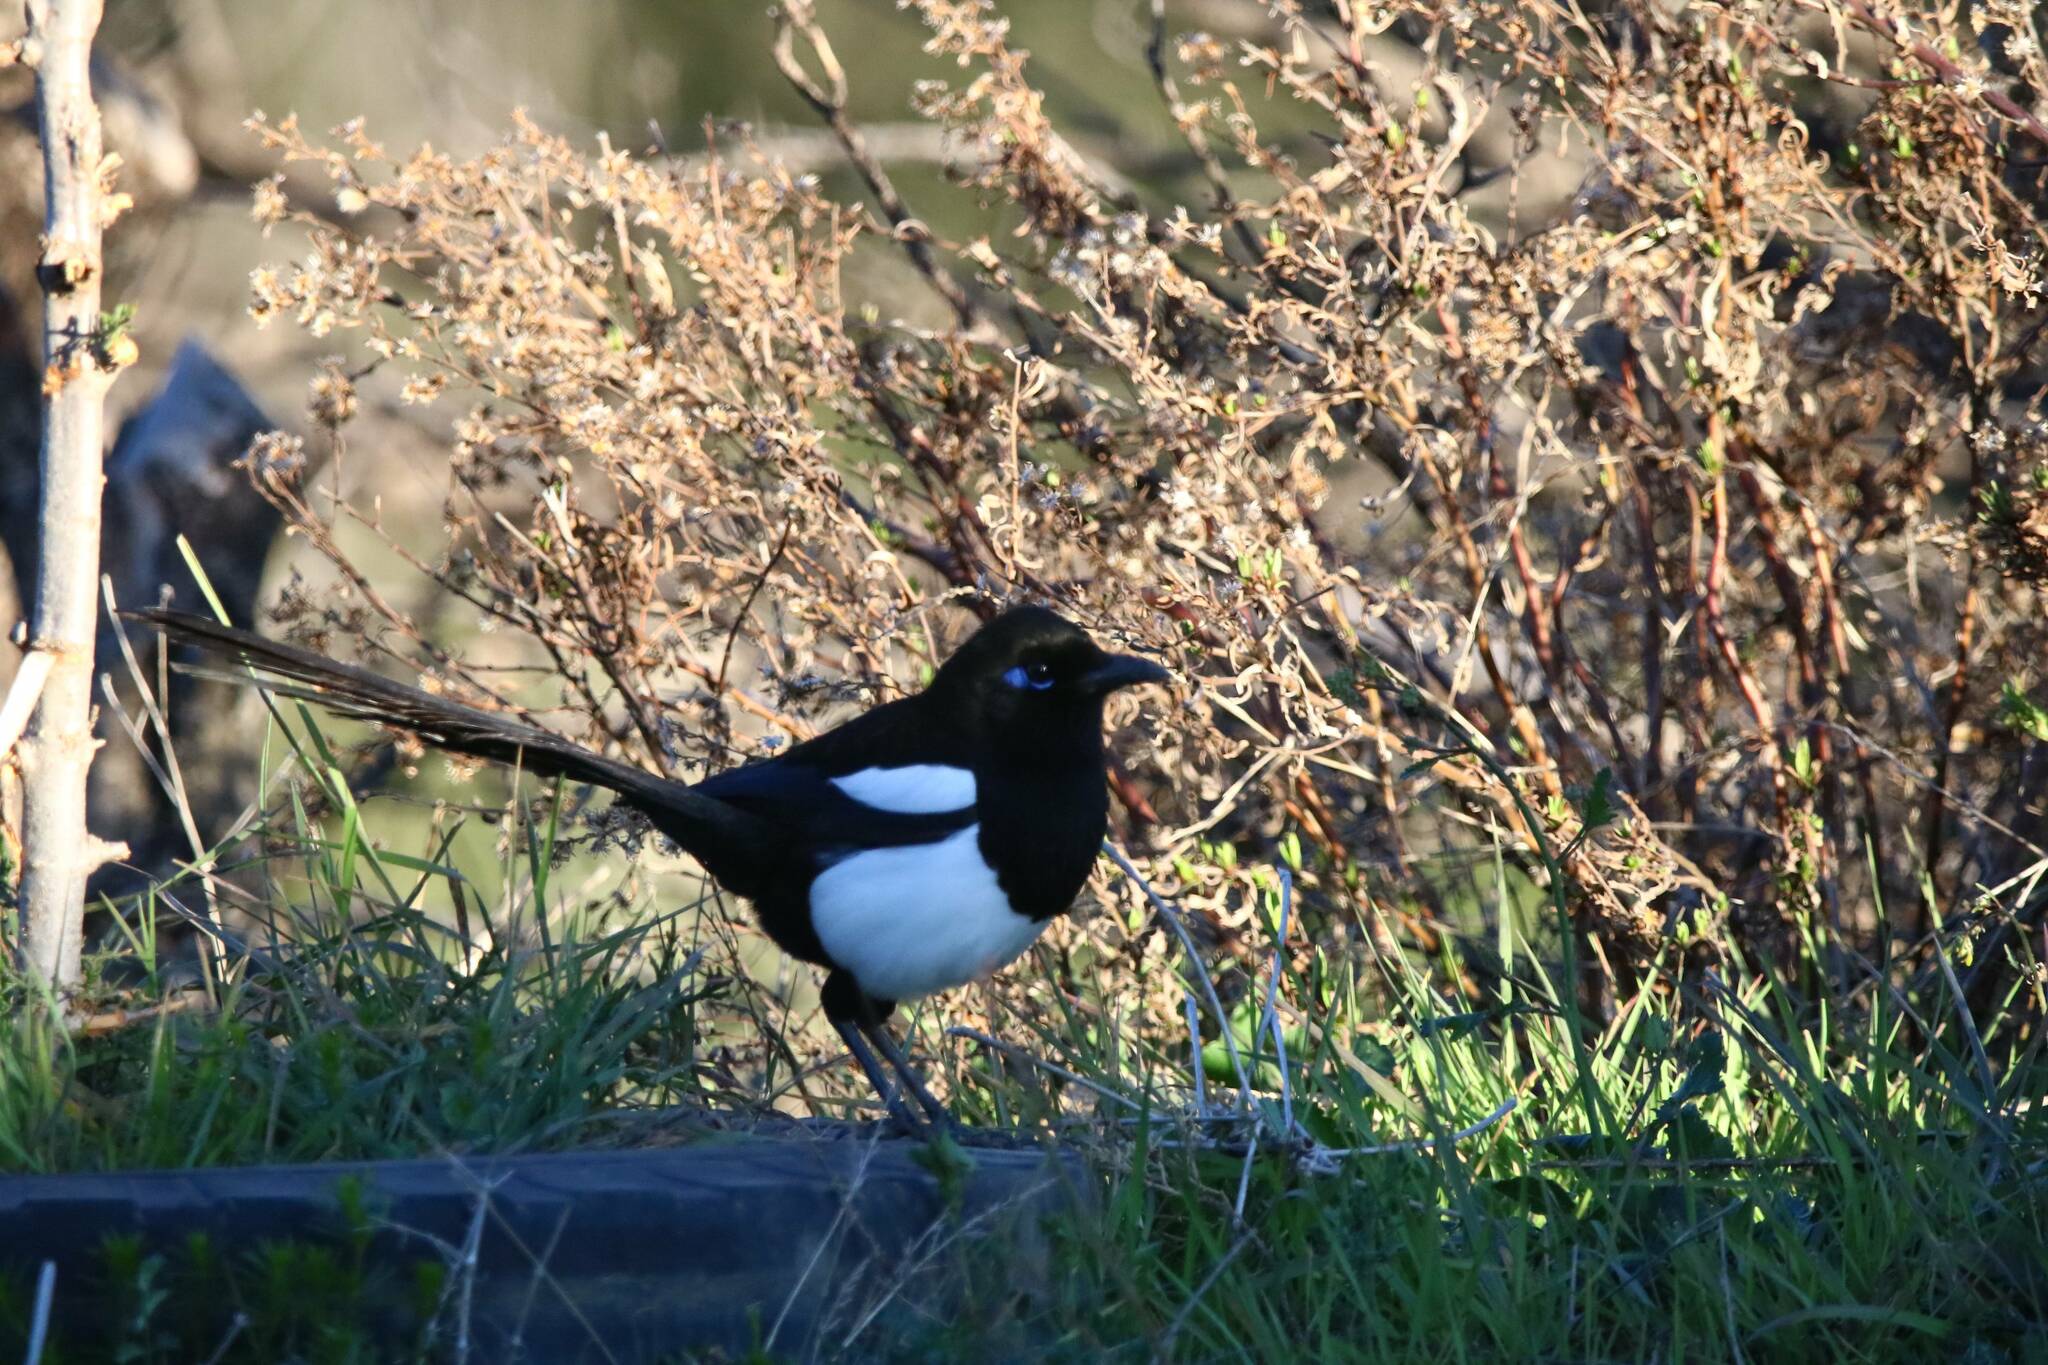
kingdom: Animalia
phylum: Chordata
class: Aves
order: Passeriformes
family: Corvidae
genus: Pica
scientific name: Pica mauritanica
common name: Maghreb magpie
